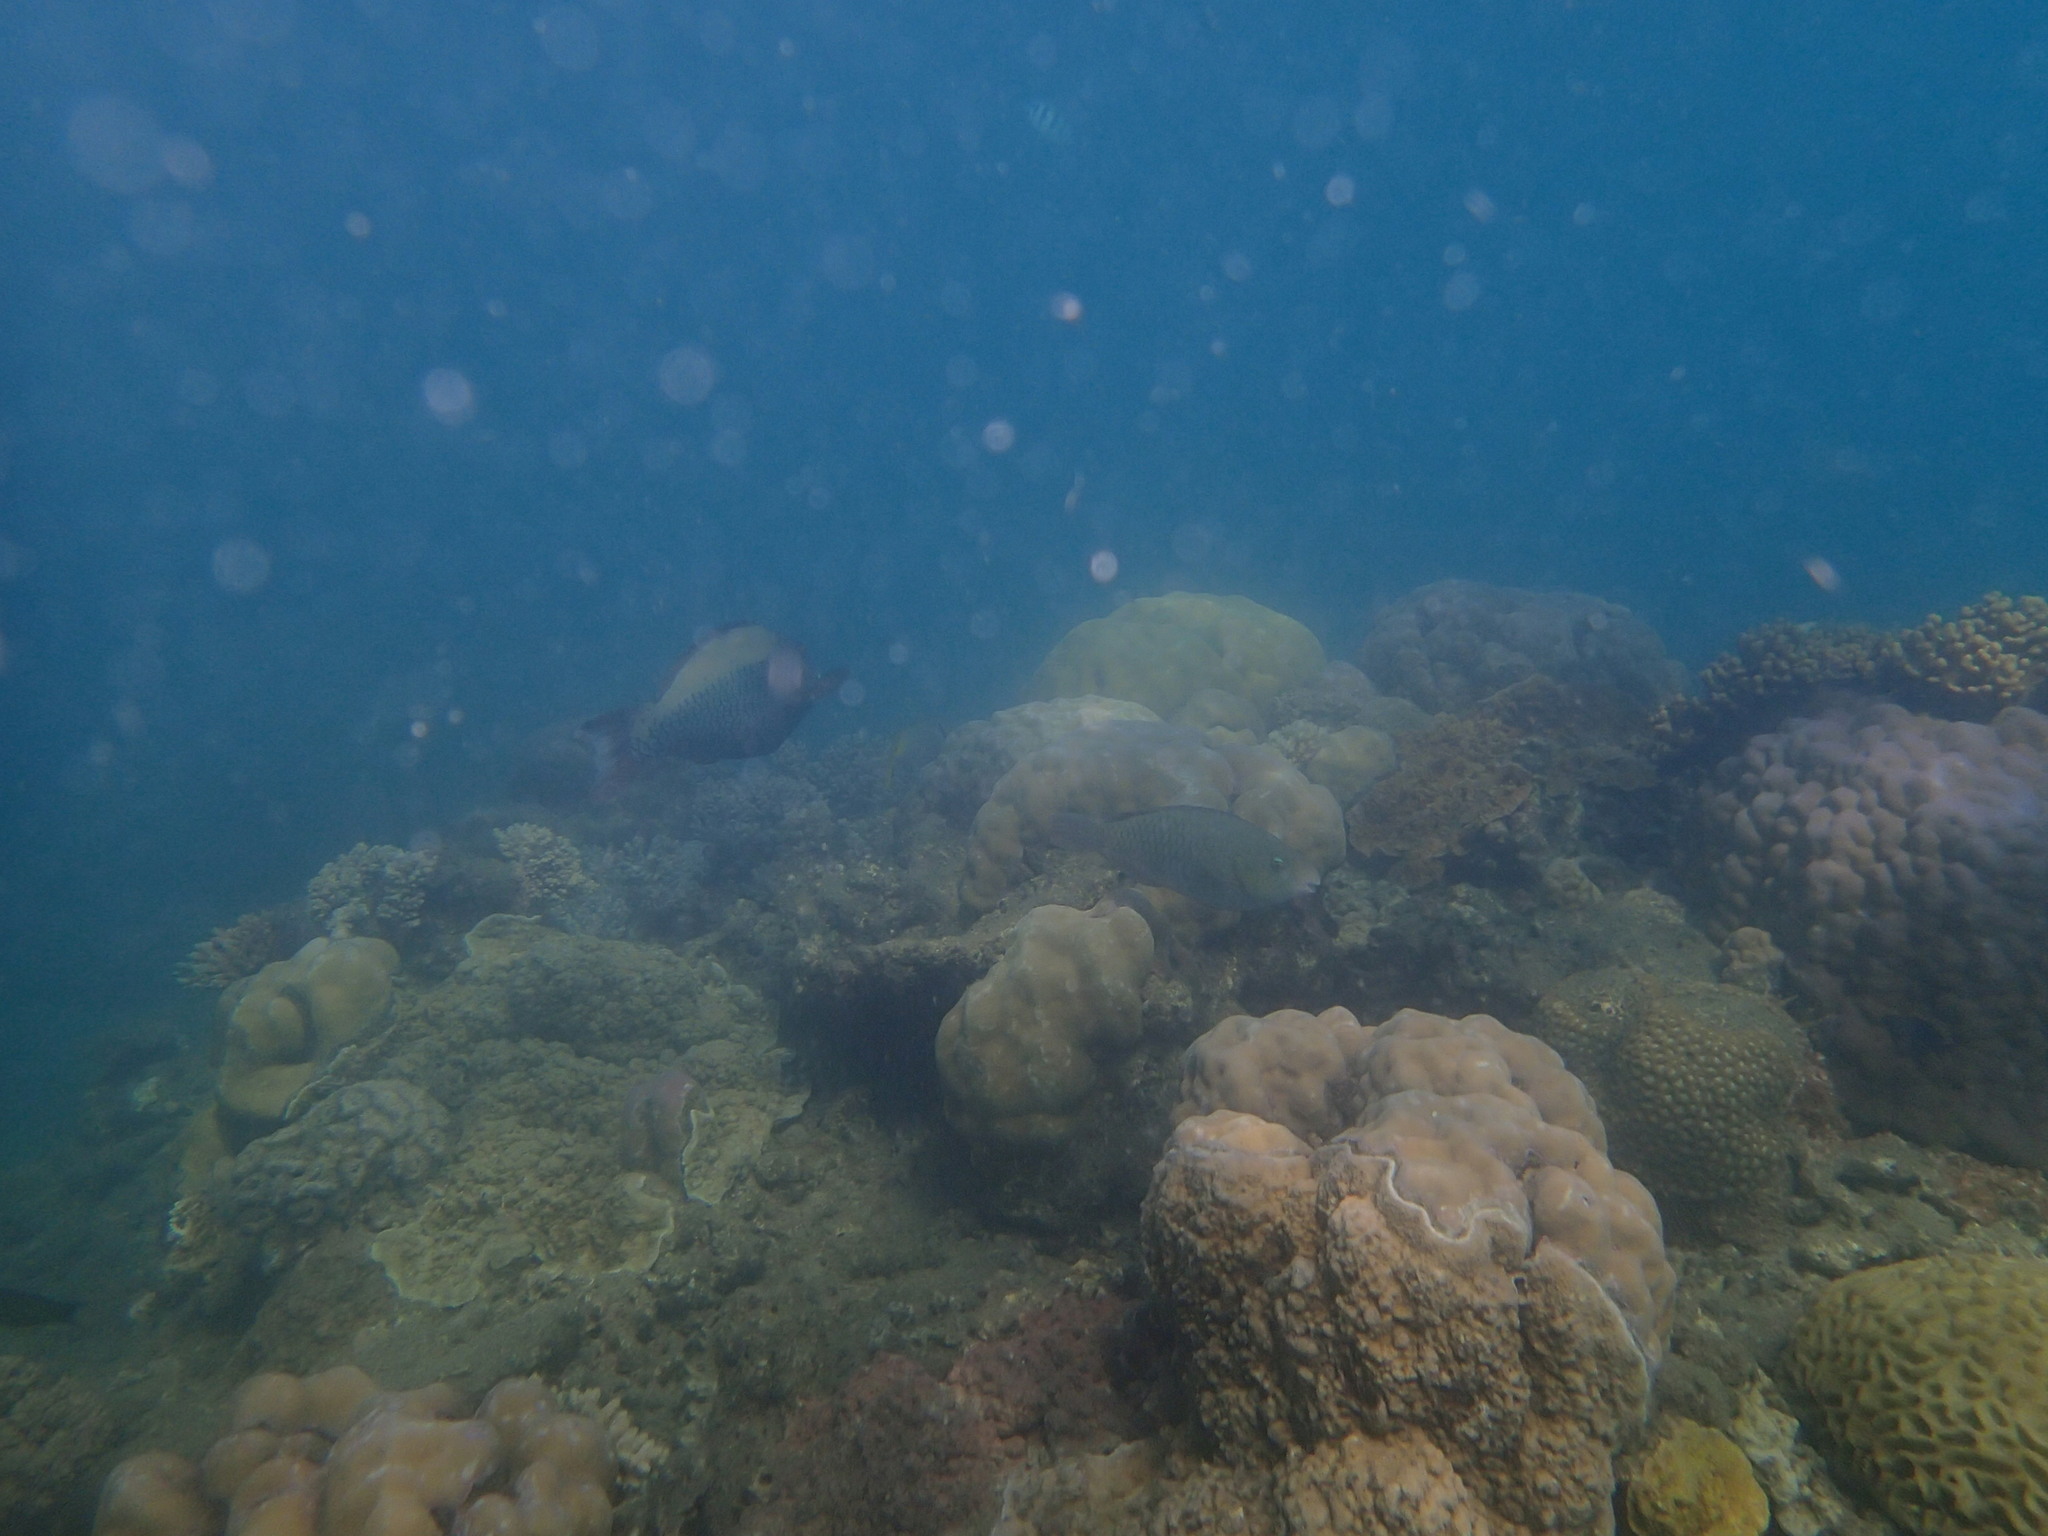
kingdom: Animalia
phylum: Chordata
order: Perciformes
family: Scaridae
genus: Cetoscarus
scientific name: Cetoscarus ocellatus
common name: Bicolor parrotfish
